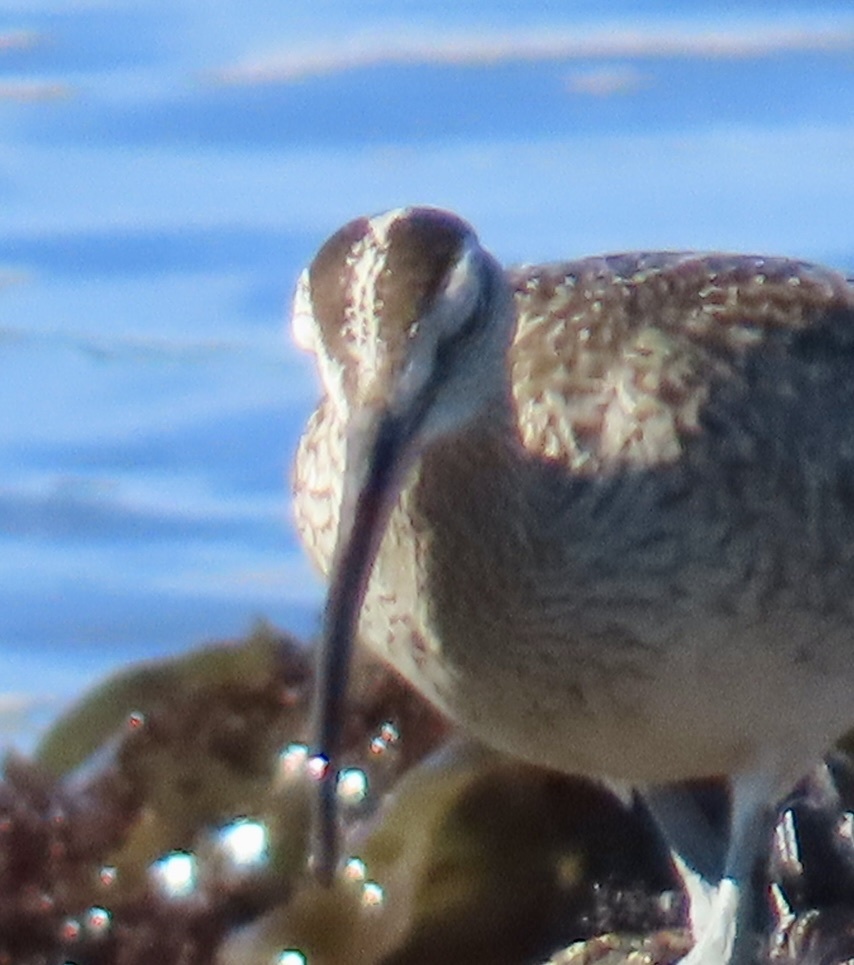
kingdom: Animalia
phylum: Chordata
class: Aves
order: Charadriiformes
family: Scolopacidae
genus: Numenius
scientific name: Numenius phaeopus
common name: Whimbrel
